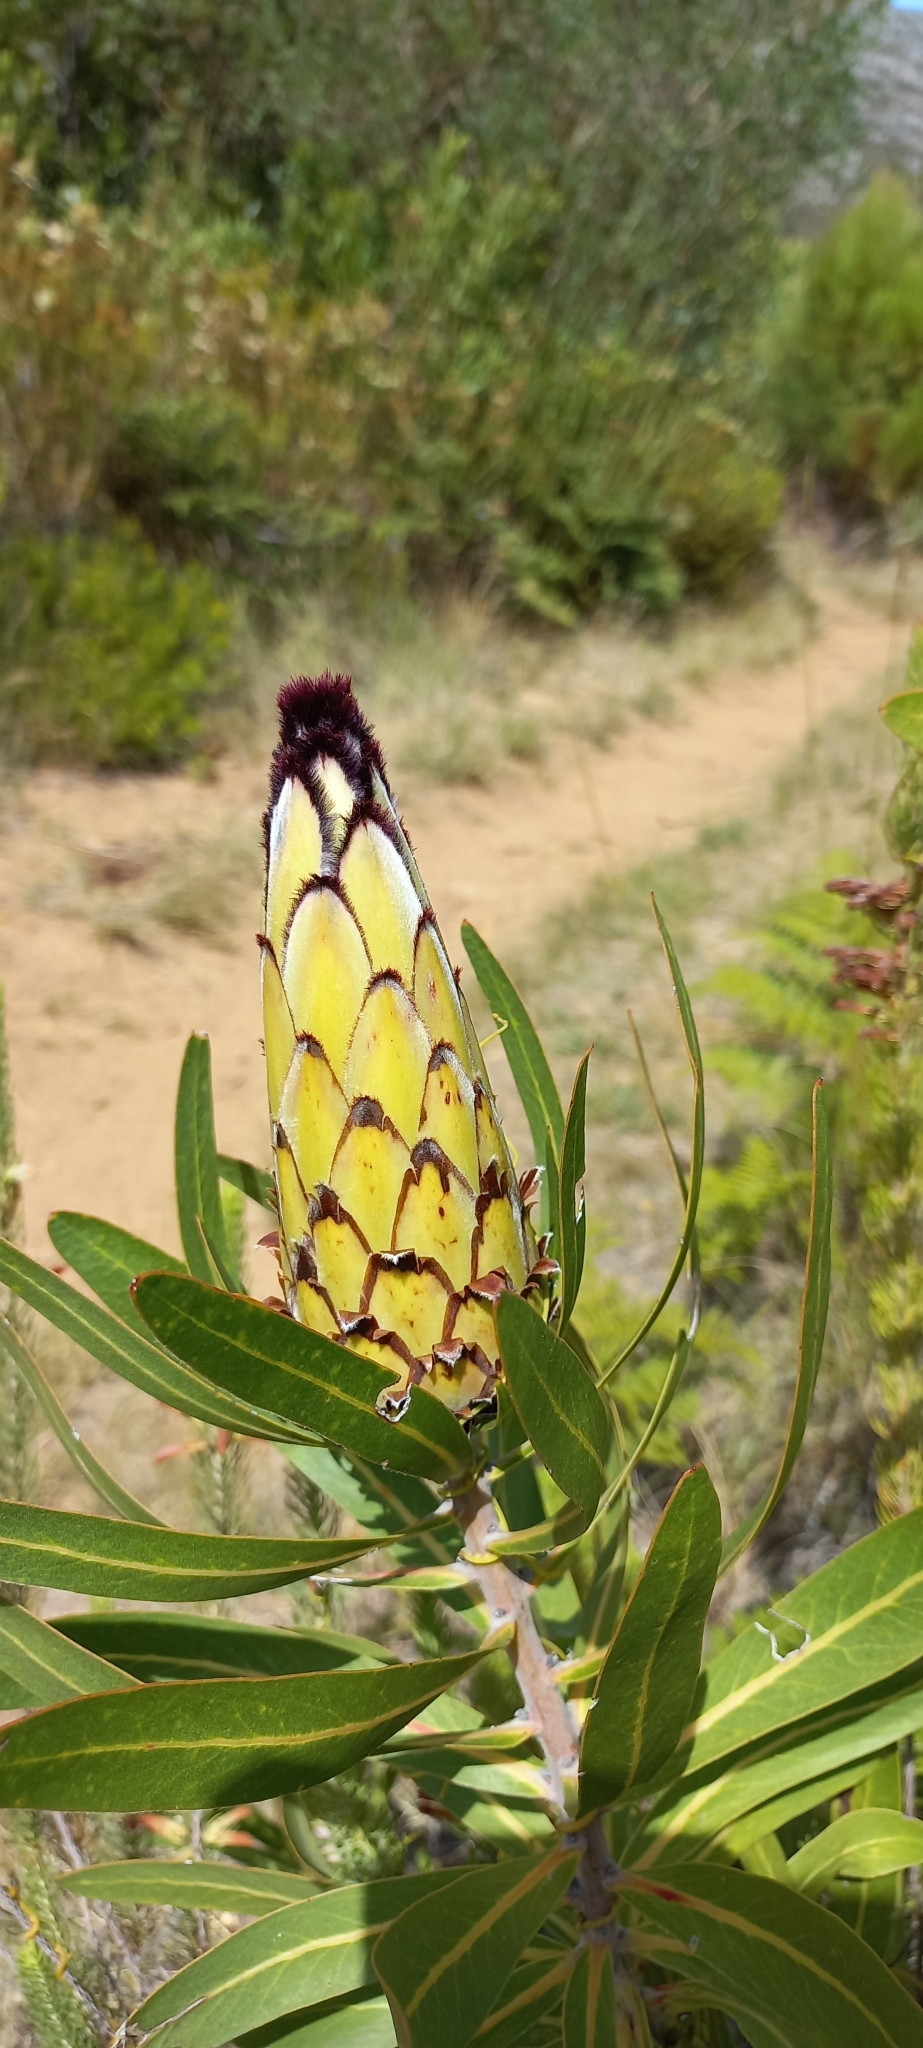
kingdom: Plantae
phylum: Tracheophyta
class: Magnoliopsida
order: Proteales
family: Proteaceae
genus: Protea
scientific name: Protea neriifolia
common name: Blue sugarbush
